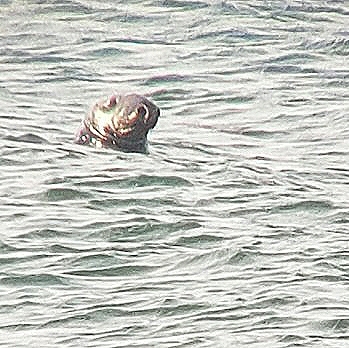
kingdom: Animalia
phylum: Chordata
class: Mammalia
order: Carnivora
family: Phocidae
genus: Halichoerus
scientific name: Halichoerus grypus
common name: Grey seal
